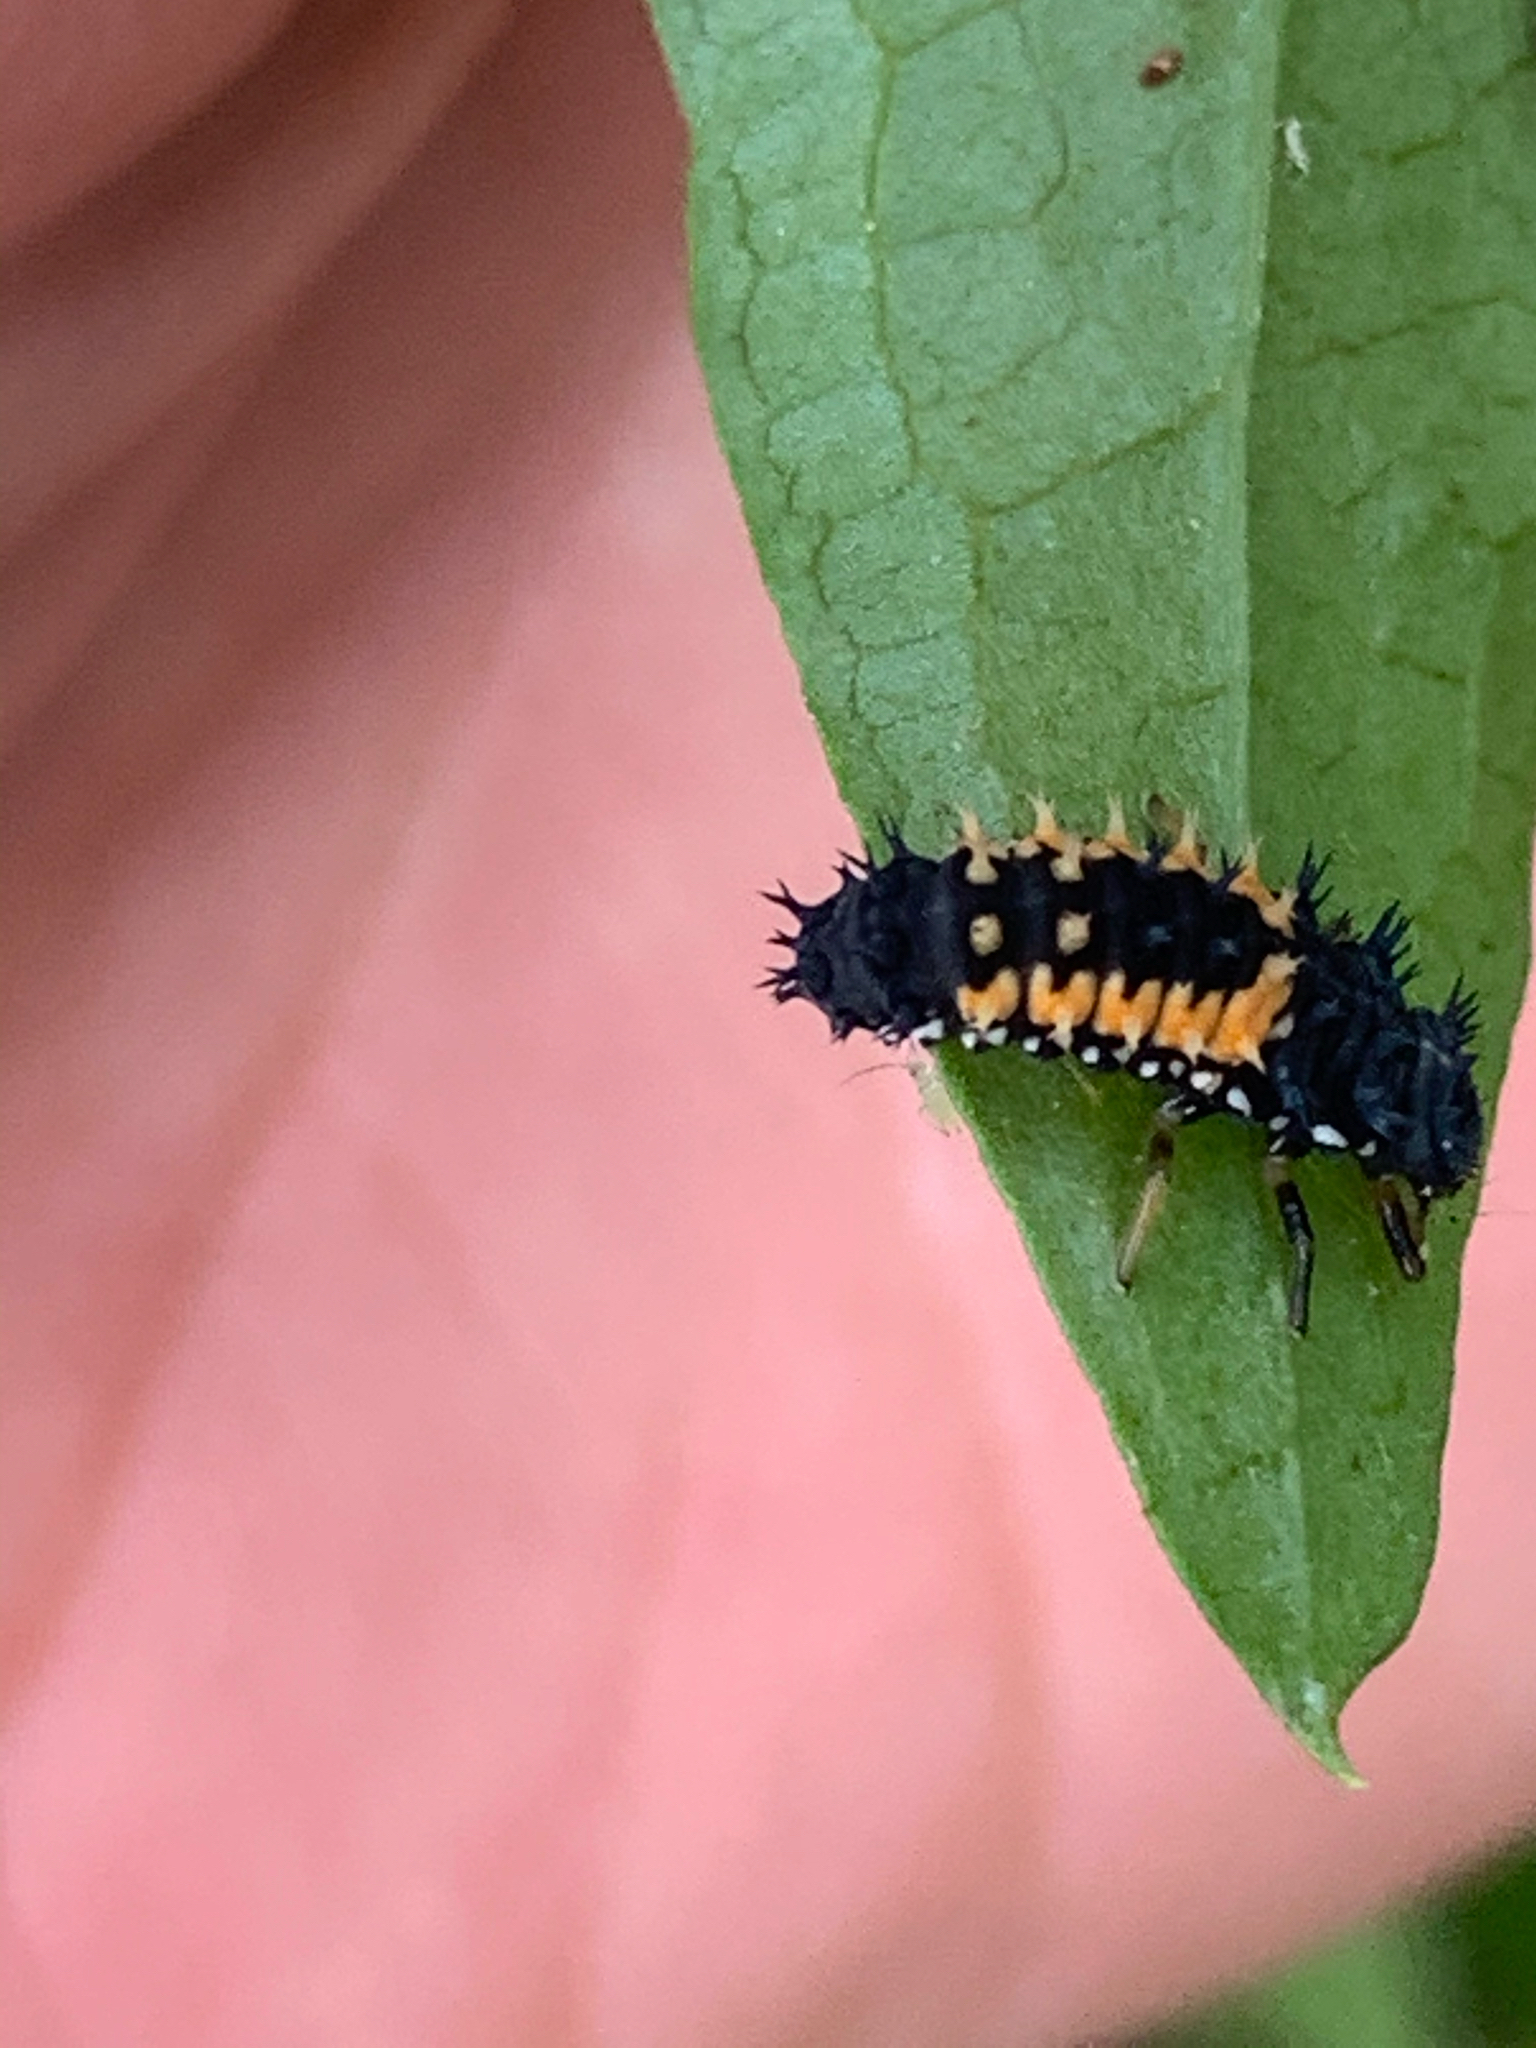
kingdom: Animalia
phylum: Arthropoda
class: Insecta
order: Coleoptera
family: Coccinellidae
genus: Harmonia
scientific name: Harmonia axyridis
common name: Harlequin ladybird
